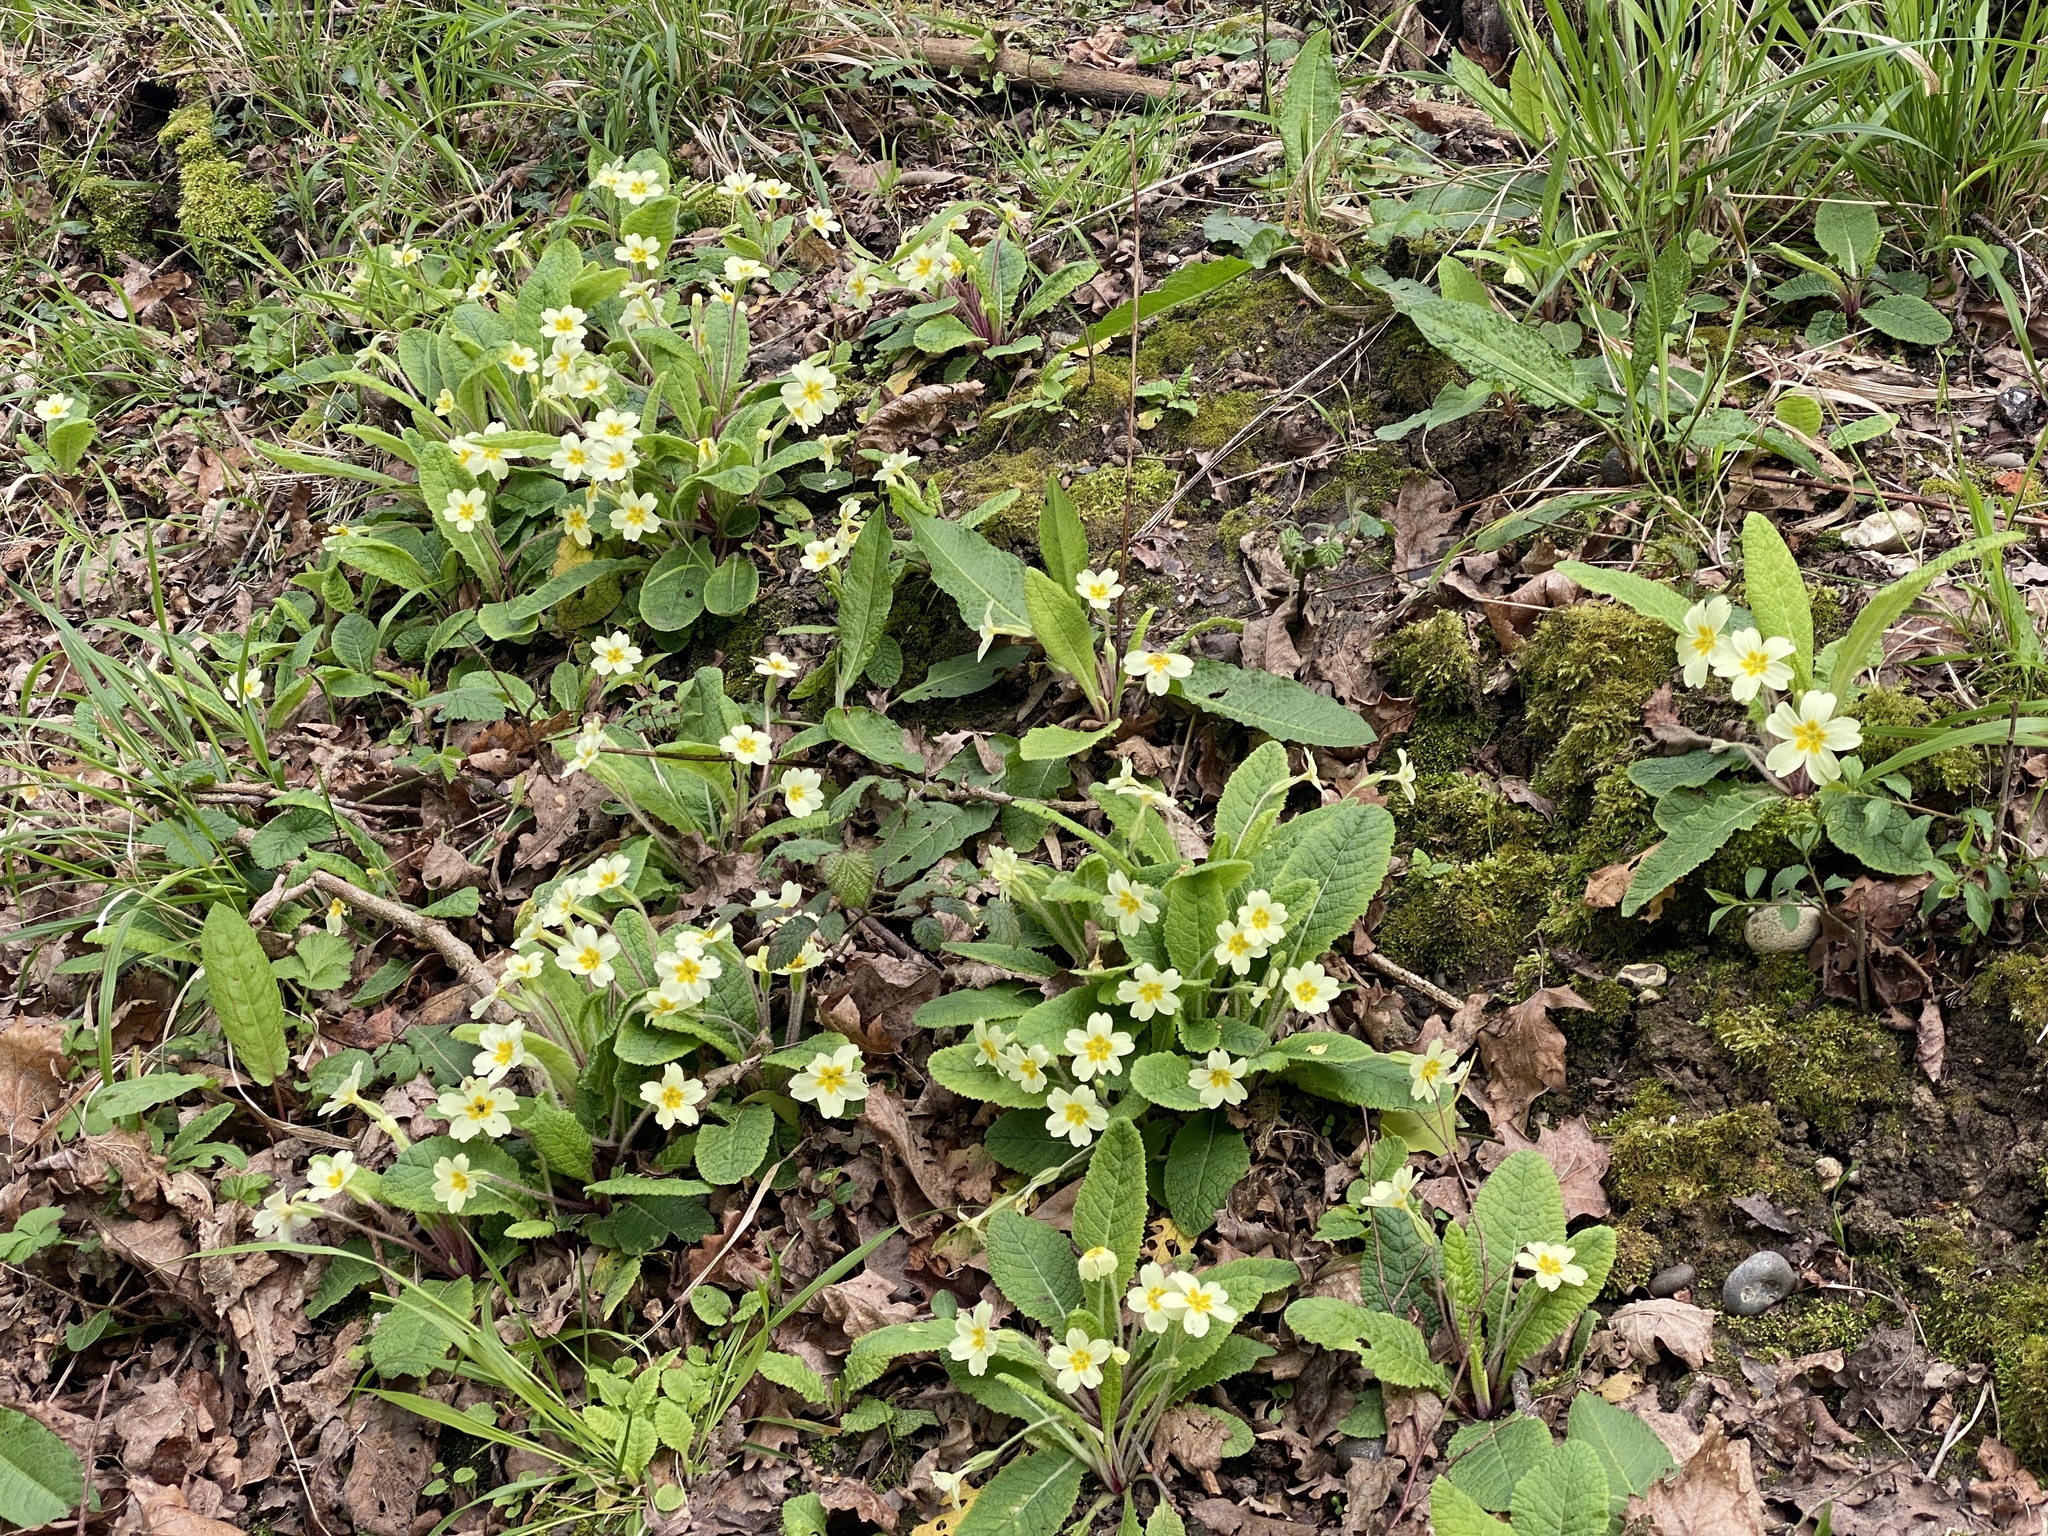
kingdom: Plantae
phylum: Tracheophyta
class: Magnoliopsida
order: Ericales
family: Primulaceae
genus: Primula
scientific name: Primula vulgaris
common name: Primrose
